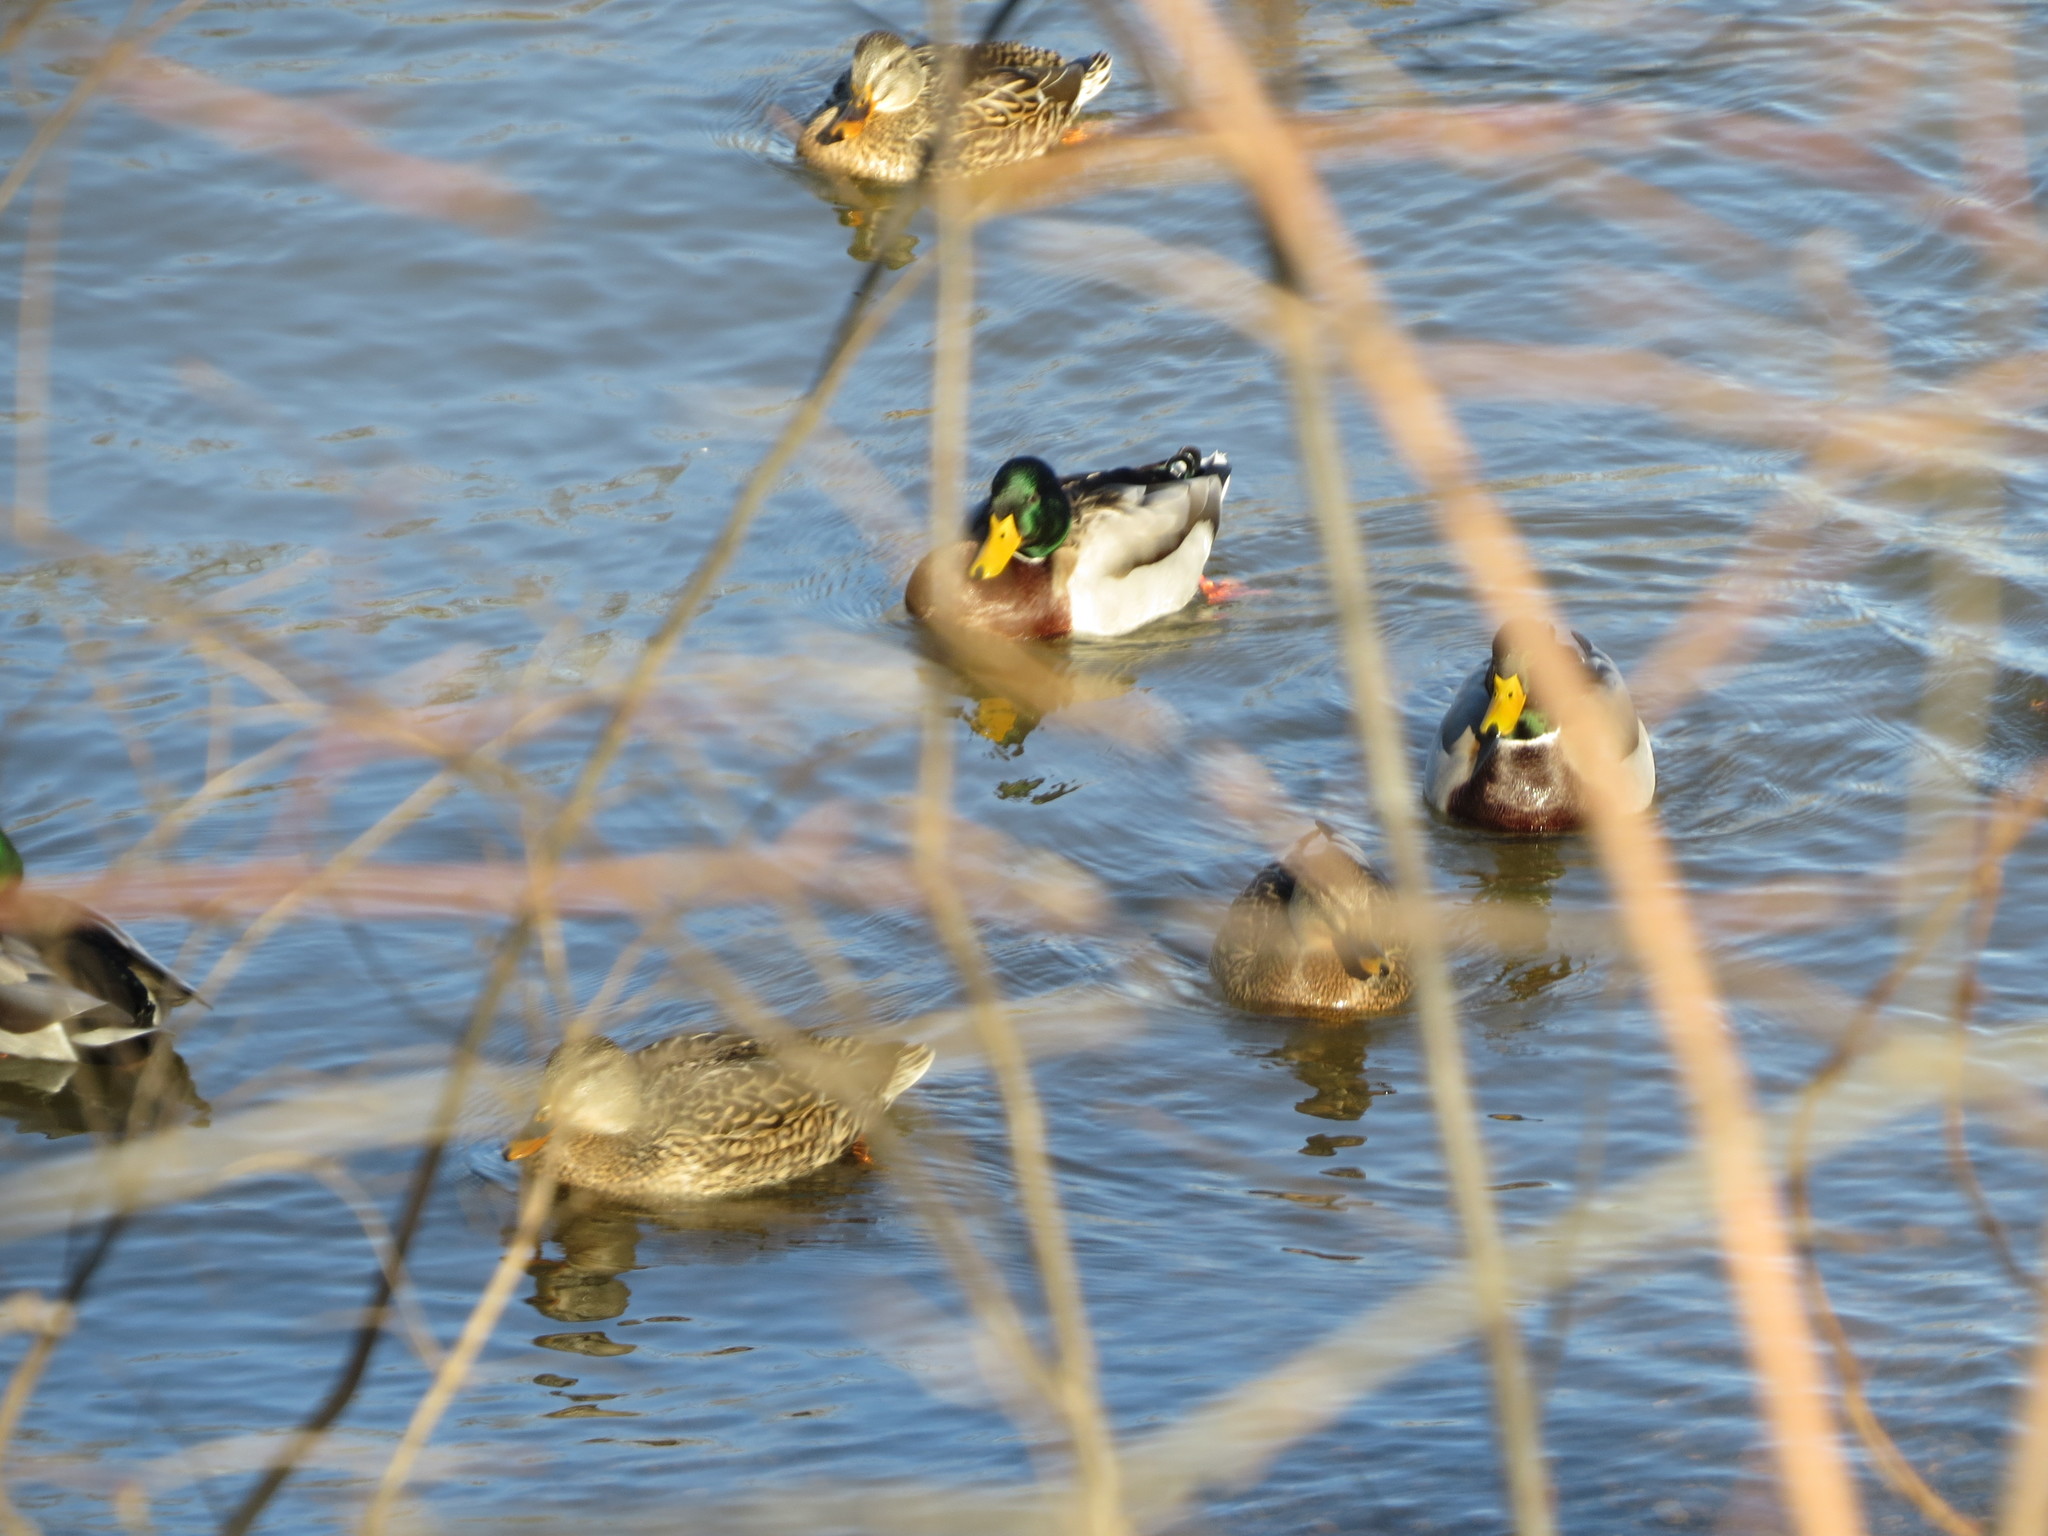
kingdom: Animalia
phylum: Chordata
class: Aves
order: Anseriformes
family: Anatidae
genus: Anas
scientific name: Anas platyrhynchos
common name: Mallard
